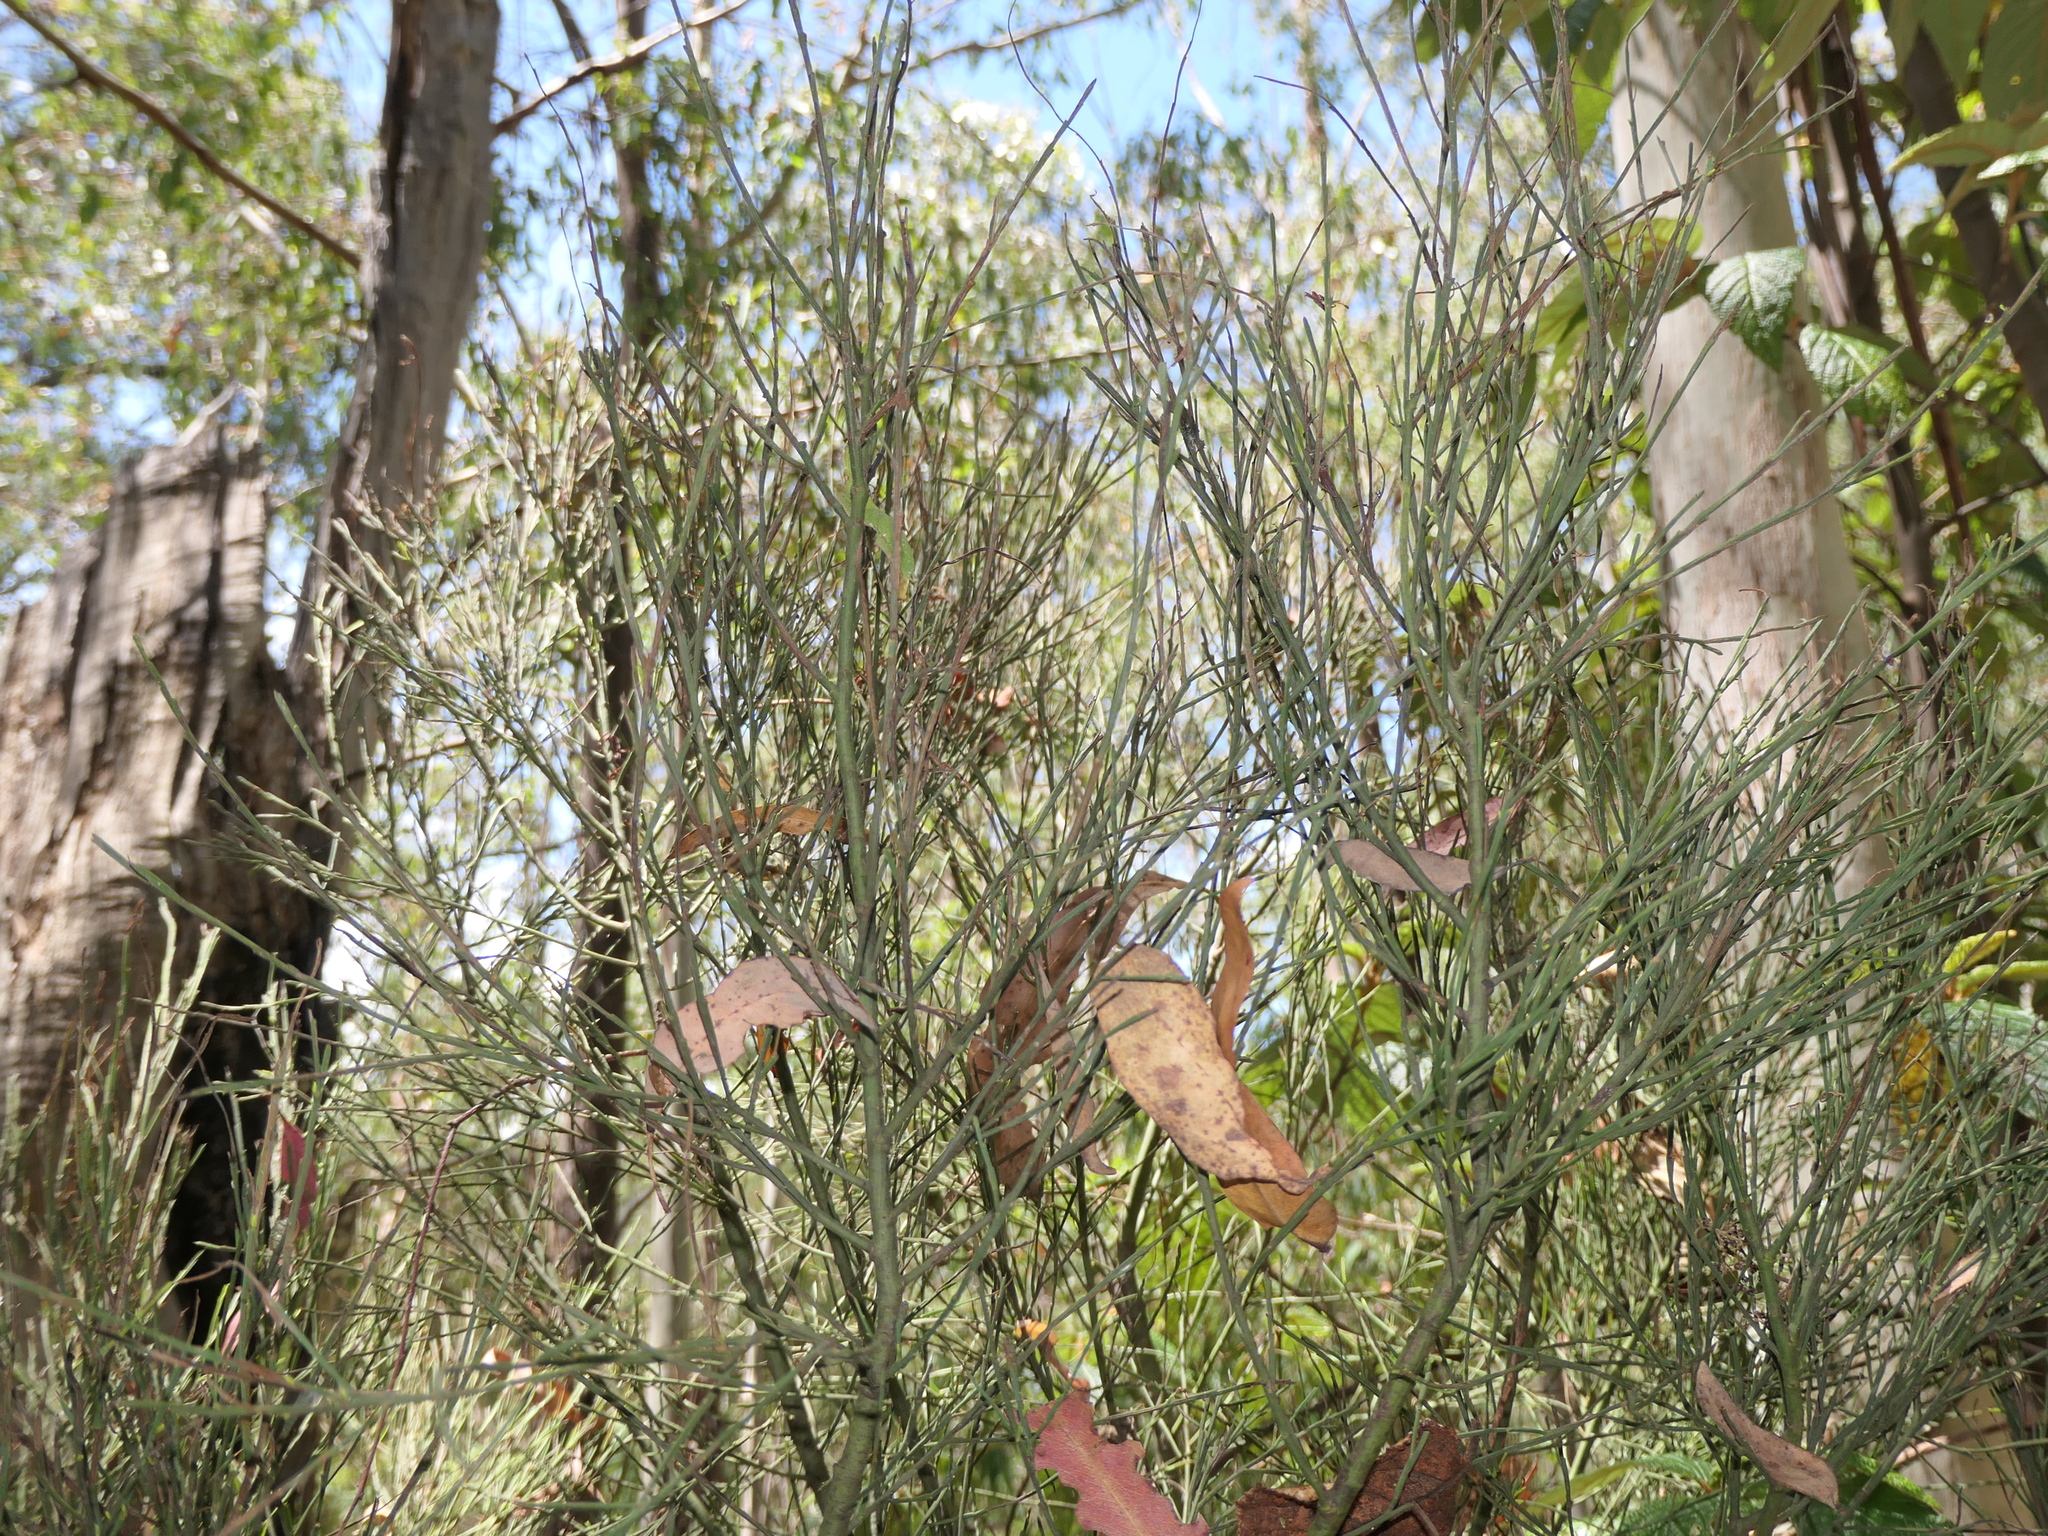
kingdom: Plantae
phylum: Tracheophyta
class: Magnoliopsida
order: Santalales
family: Santalaceae
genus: Exocarpos
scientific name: Exocarpos strictus
